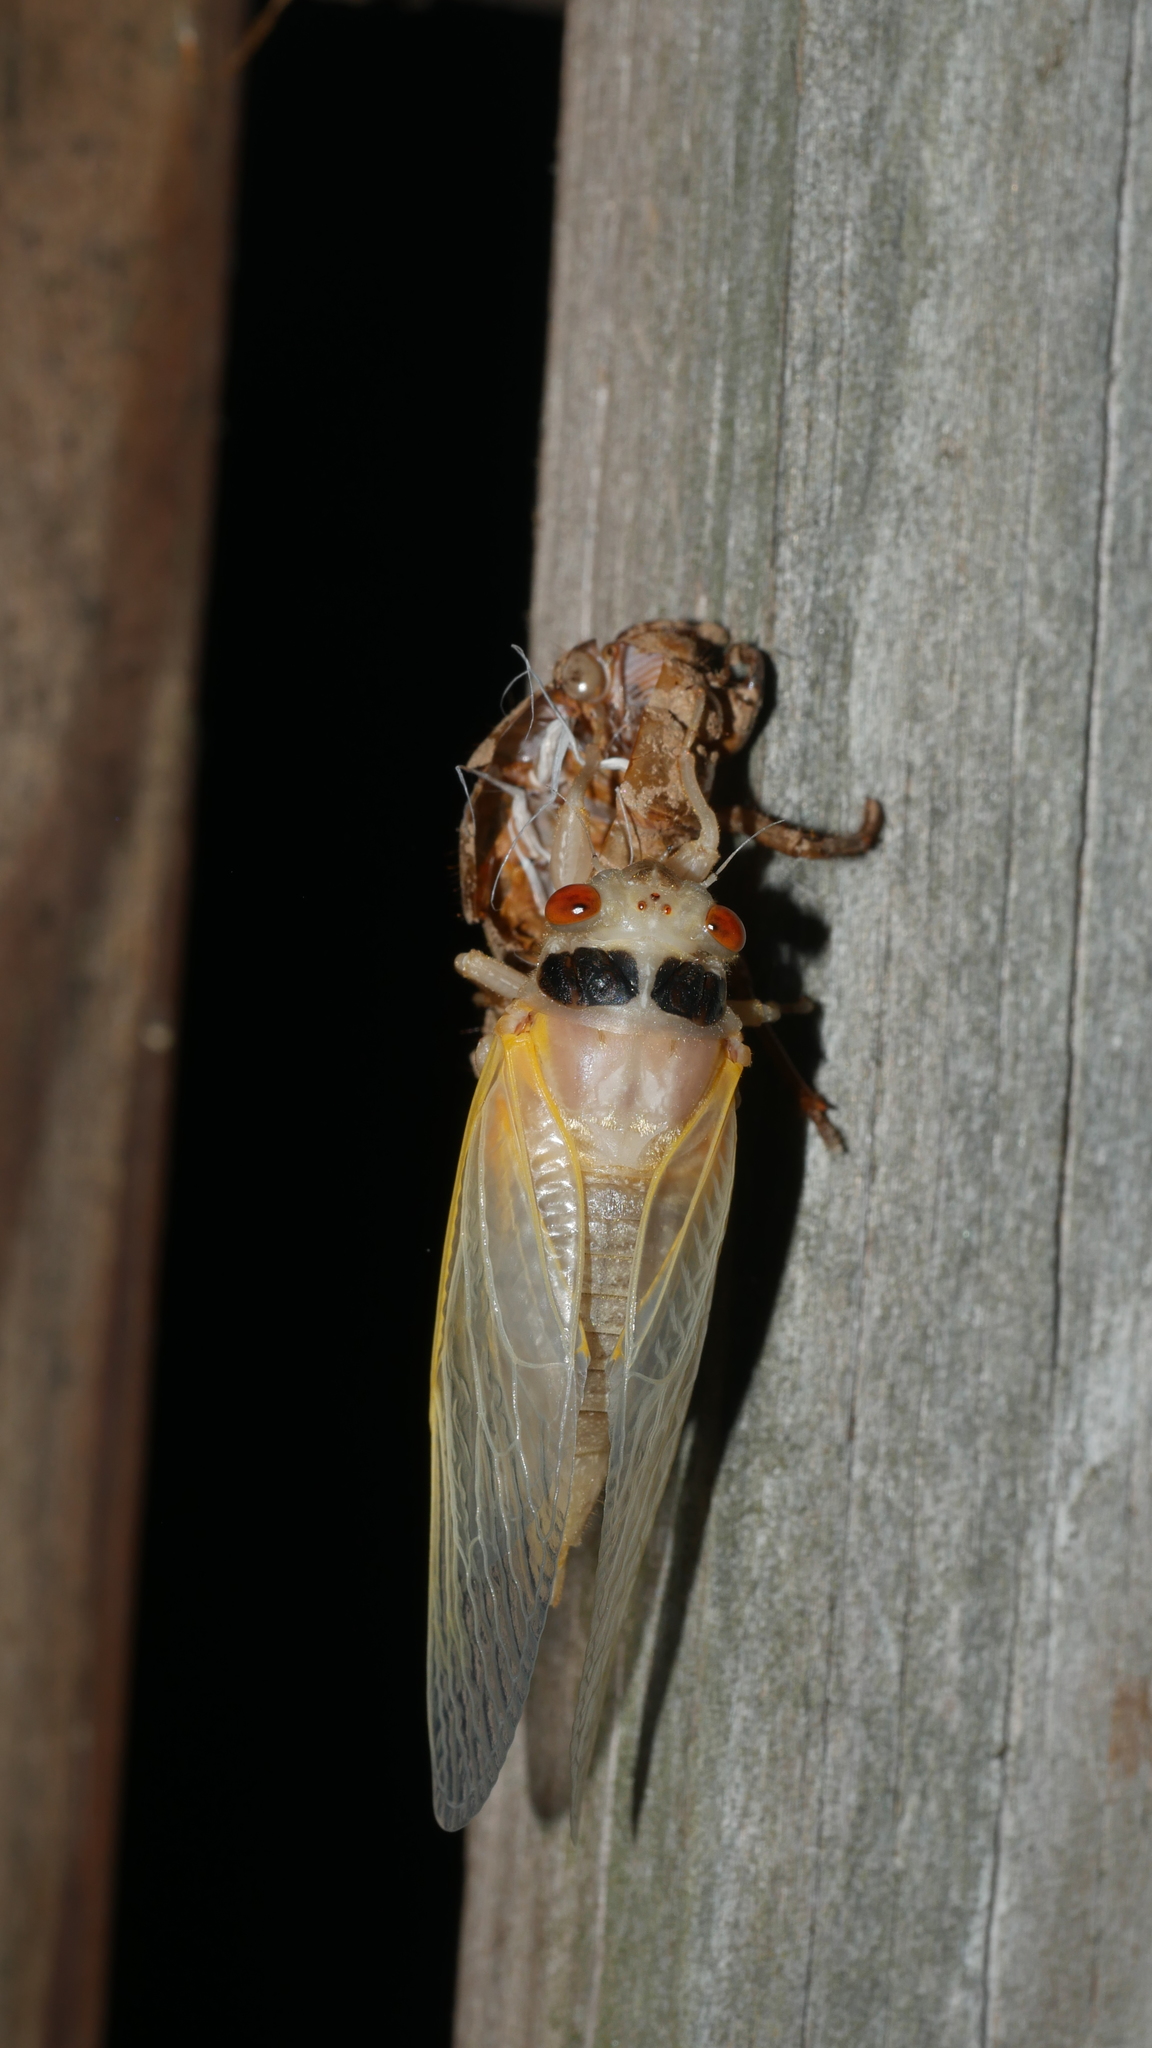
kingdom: Animalia
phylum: Arthropoda
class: Insecta
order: Hemiptera
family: Cicadidae
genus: Magicicada
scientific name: Magicicada
